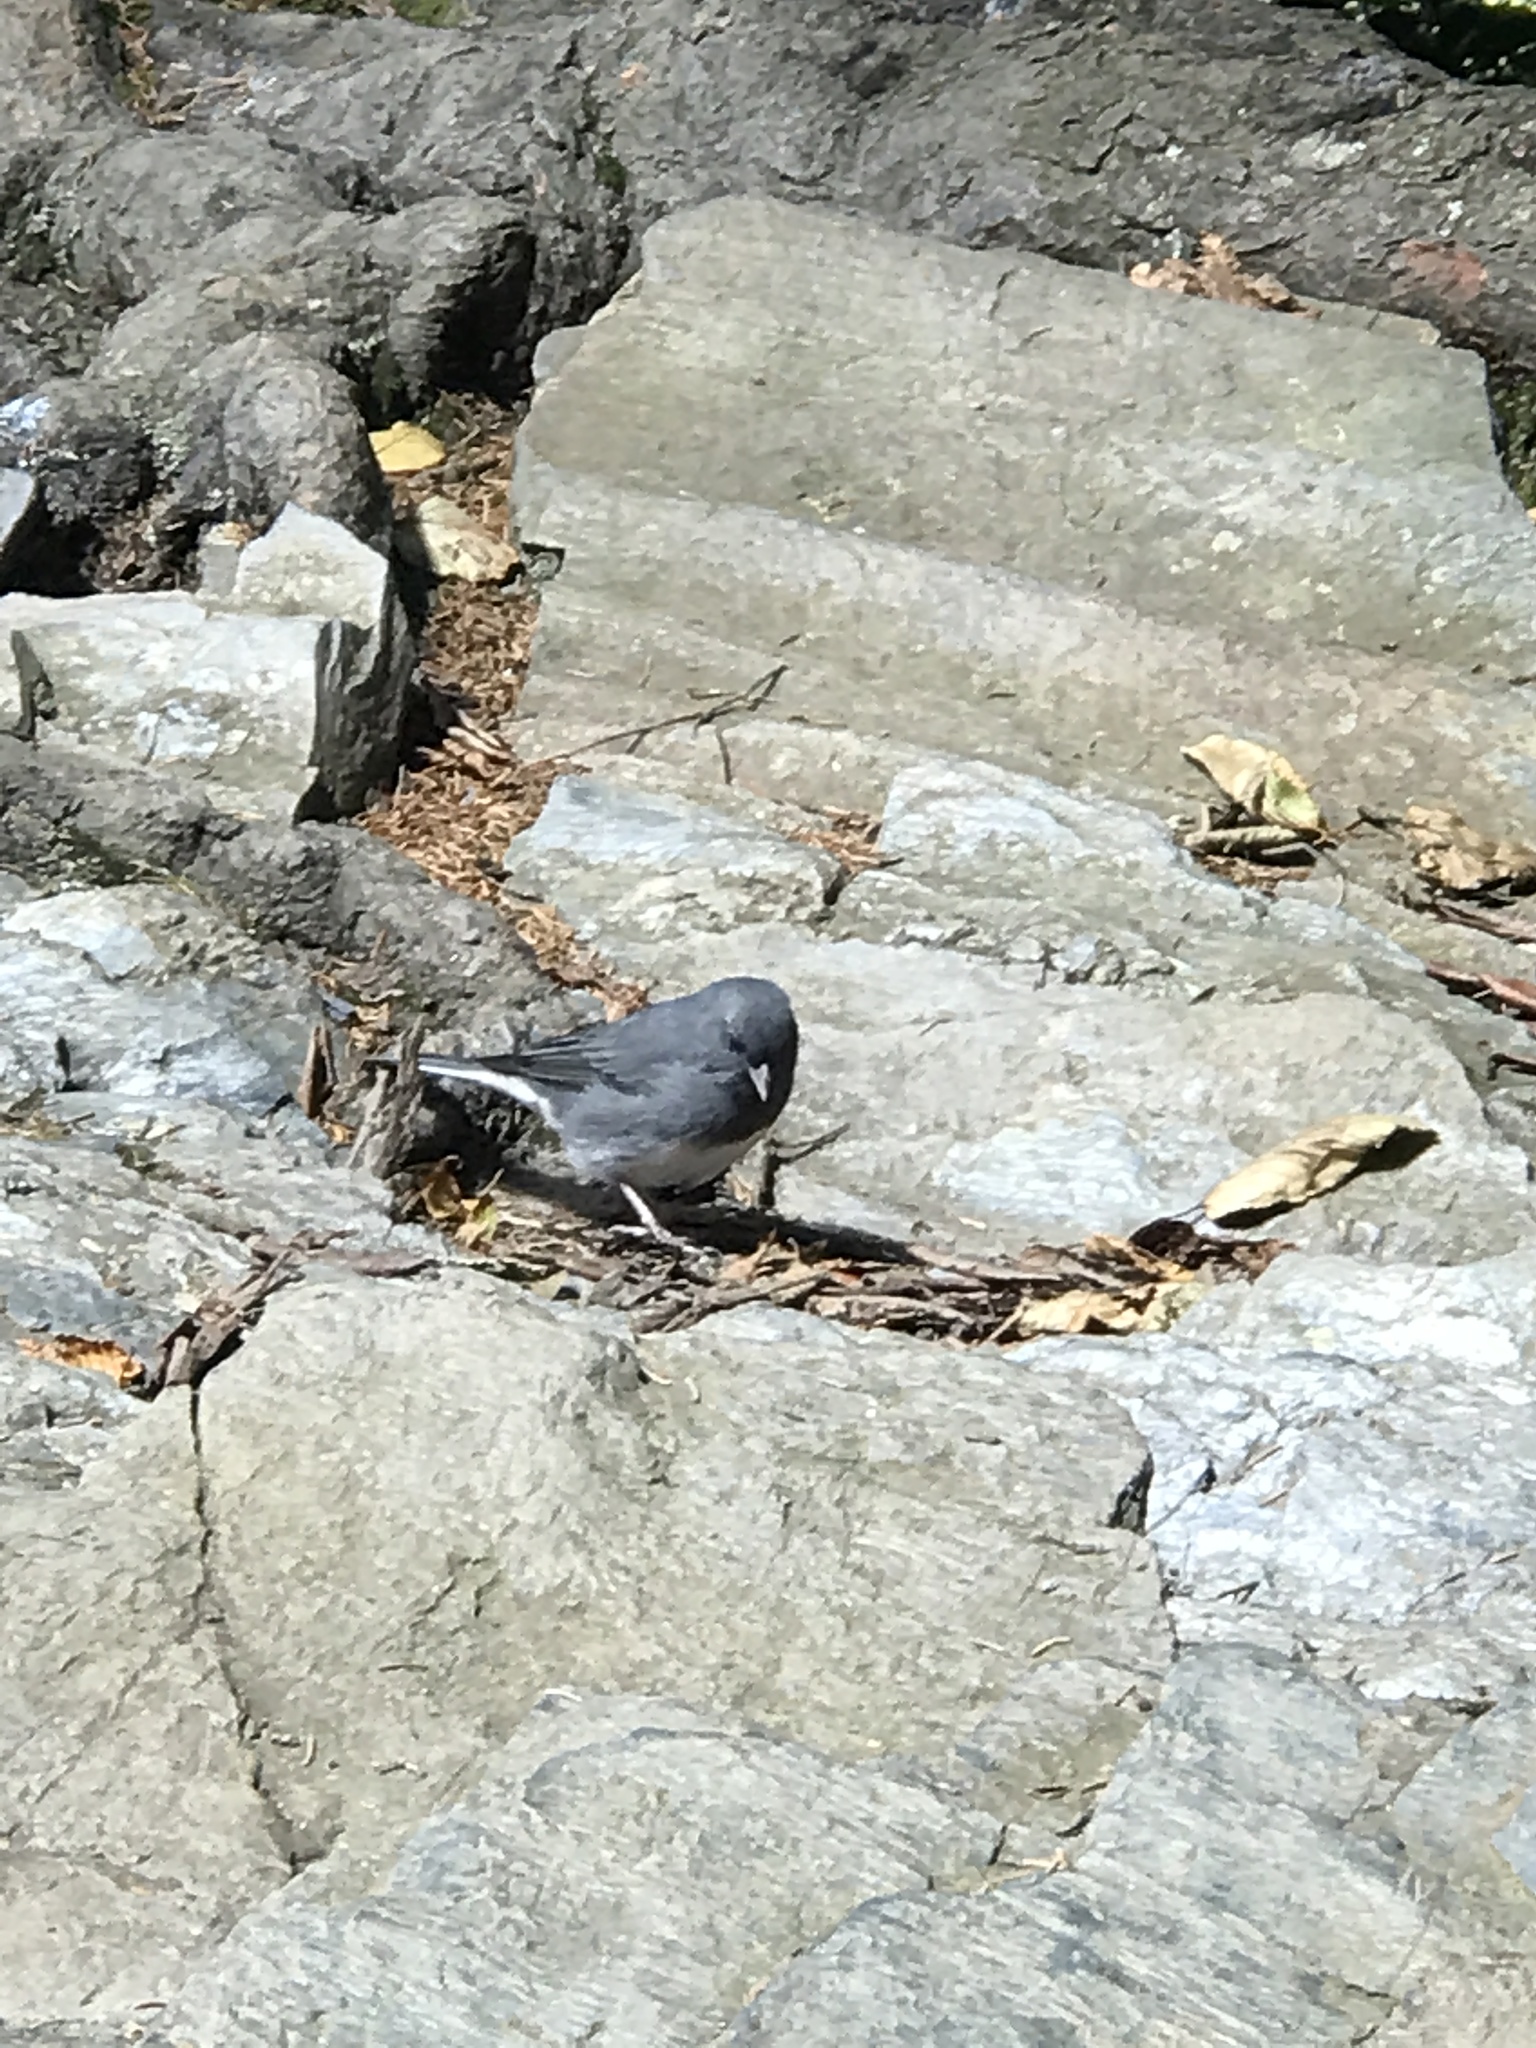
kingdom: Animalia
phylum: Chordata
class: Aves
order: Passeriformes
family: Passerellidae
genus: Junco
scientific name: Junco hyemalis
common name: Dark-eyed junco
